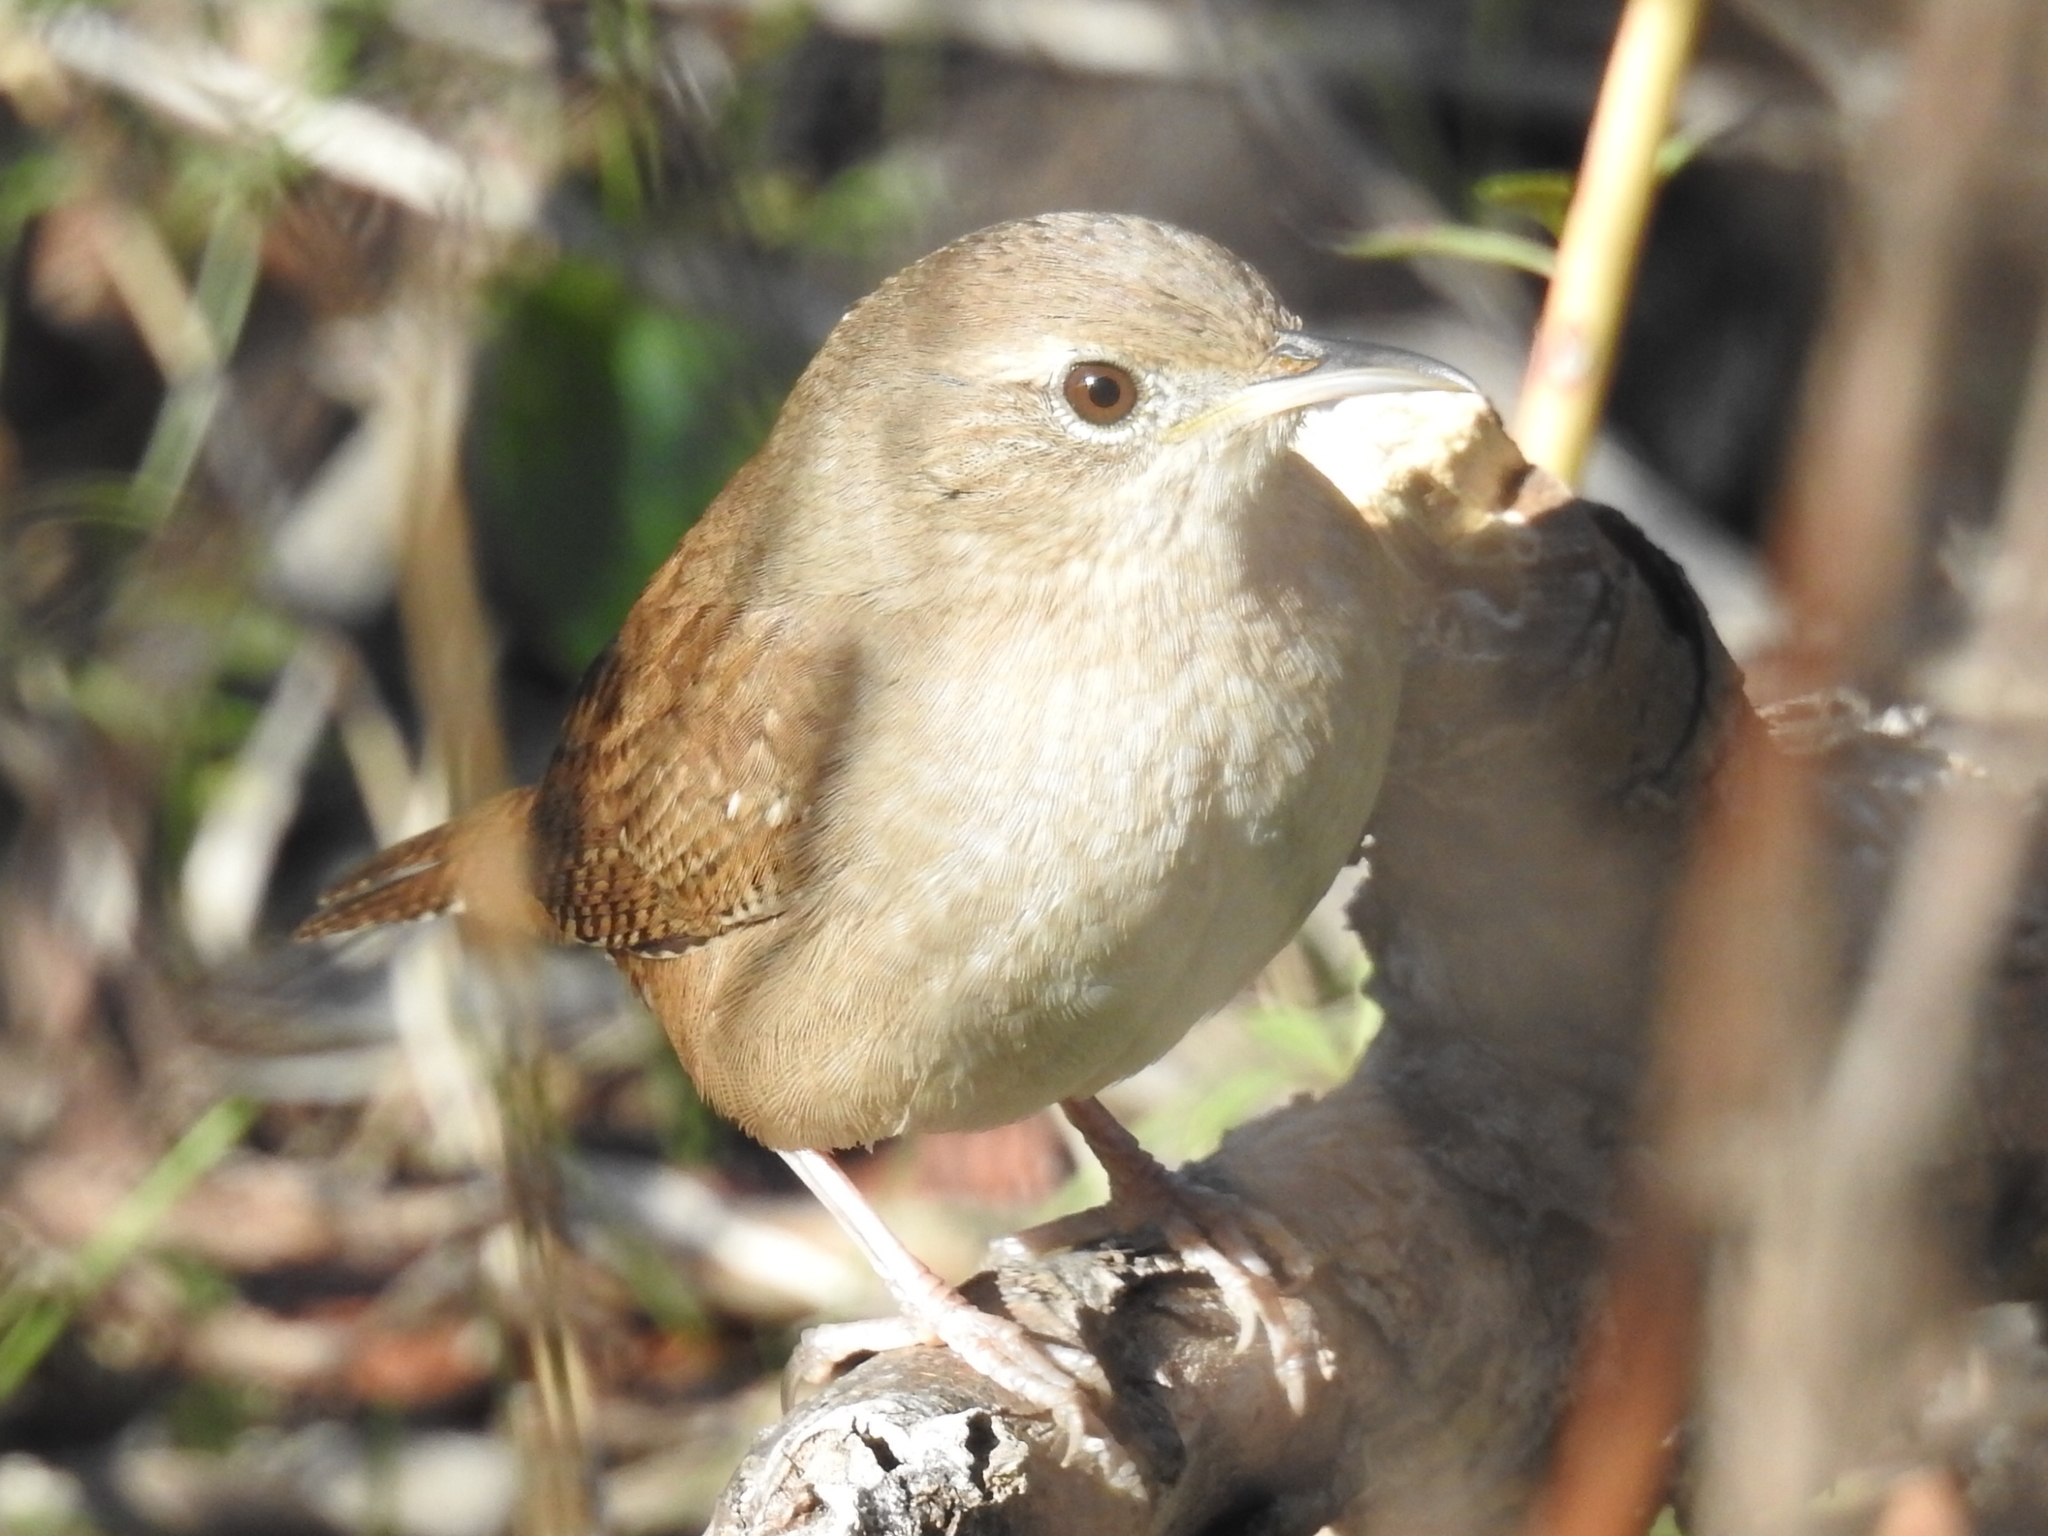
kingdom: Animalia
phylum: Chordata
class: Aves
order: Passeriformes
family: Troglodytidae
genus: Troglodytes
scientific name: Troglodytes aedon
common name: House wren
